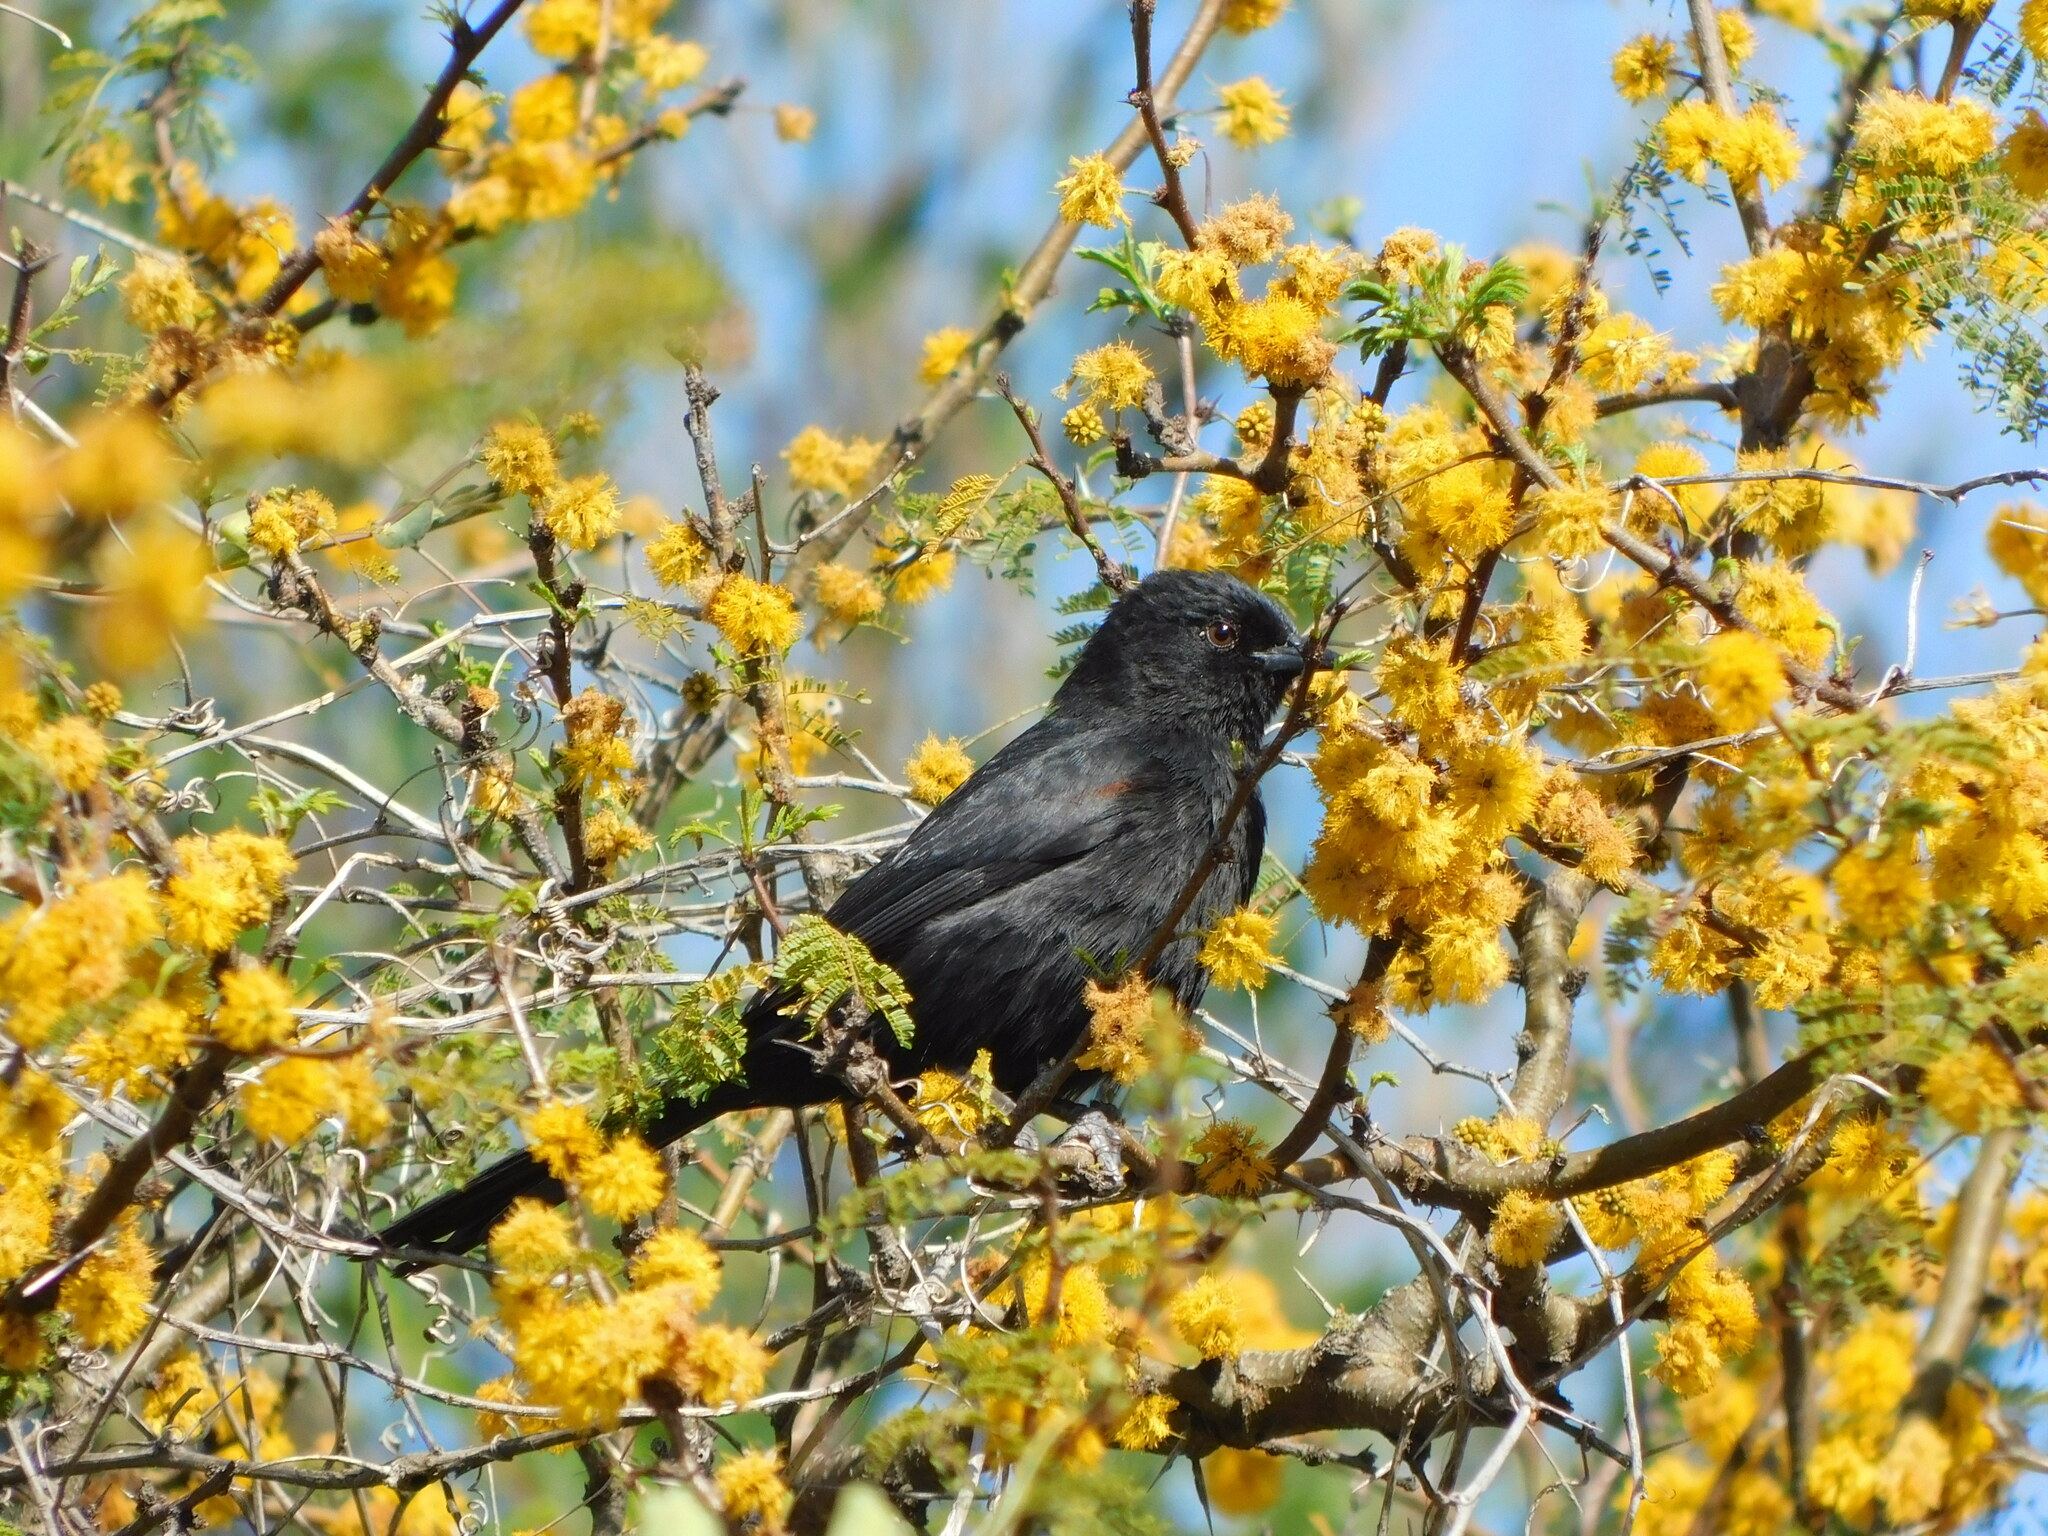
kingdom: Animalia
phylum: Chordata
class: Aves
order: Passeriformes
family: Icteridae
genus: Icterus
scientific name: Icterus cayanensis
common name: Epaulet oriole
